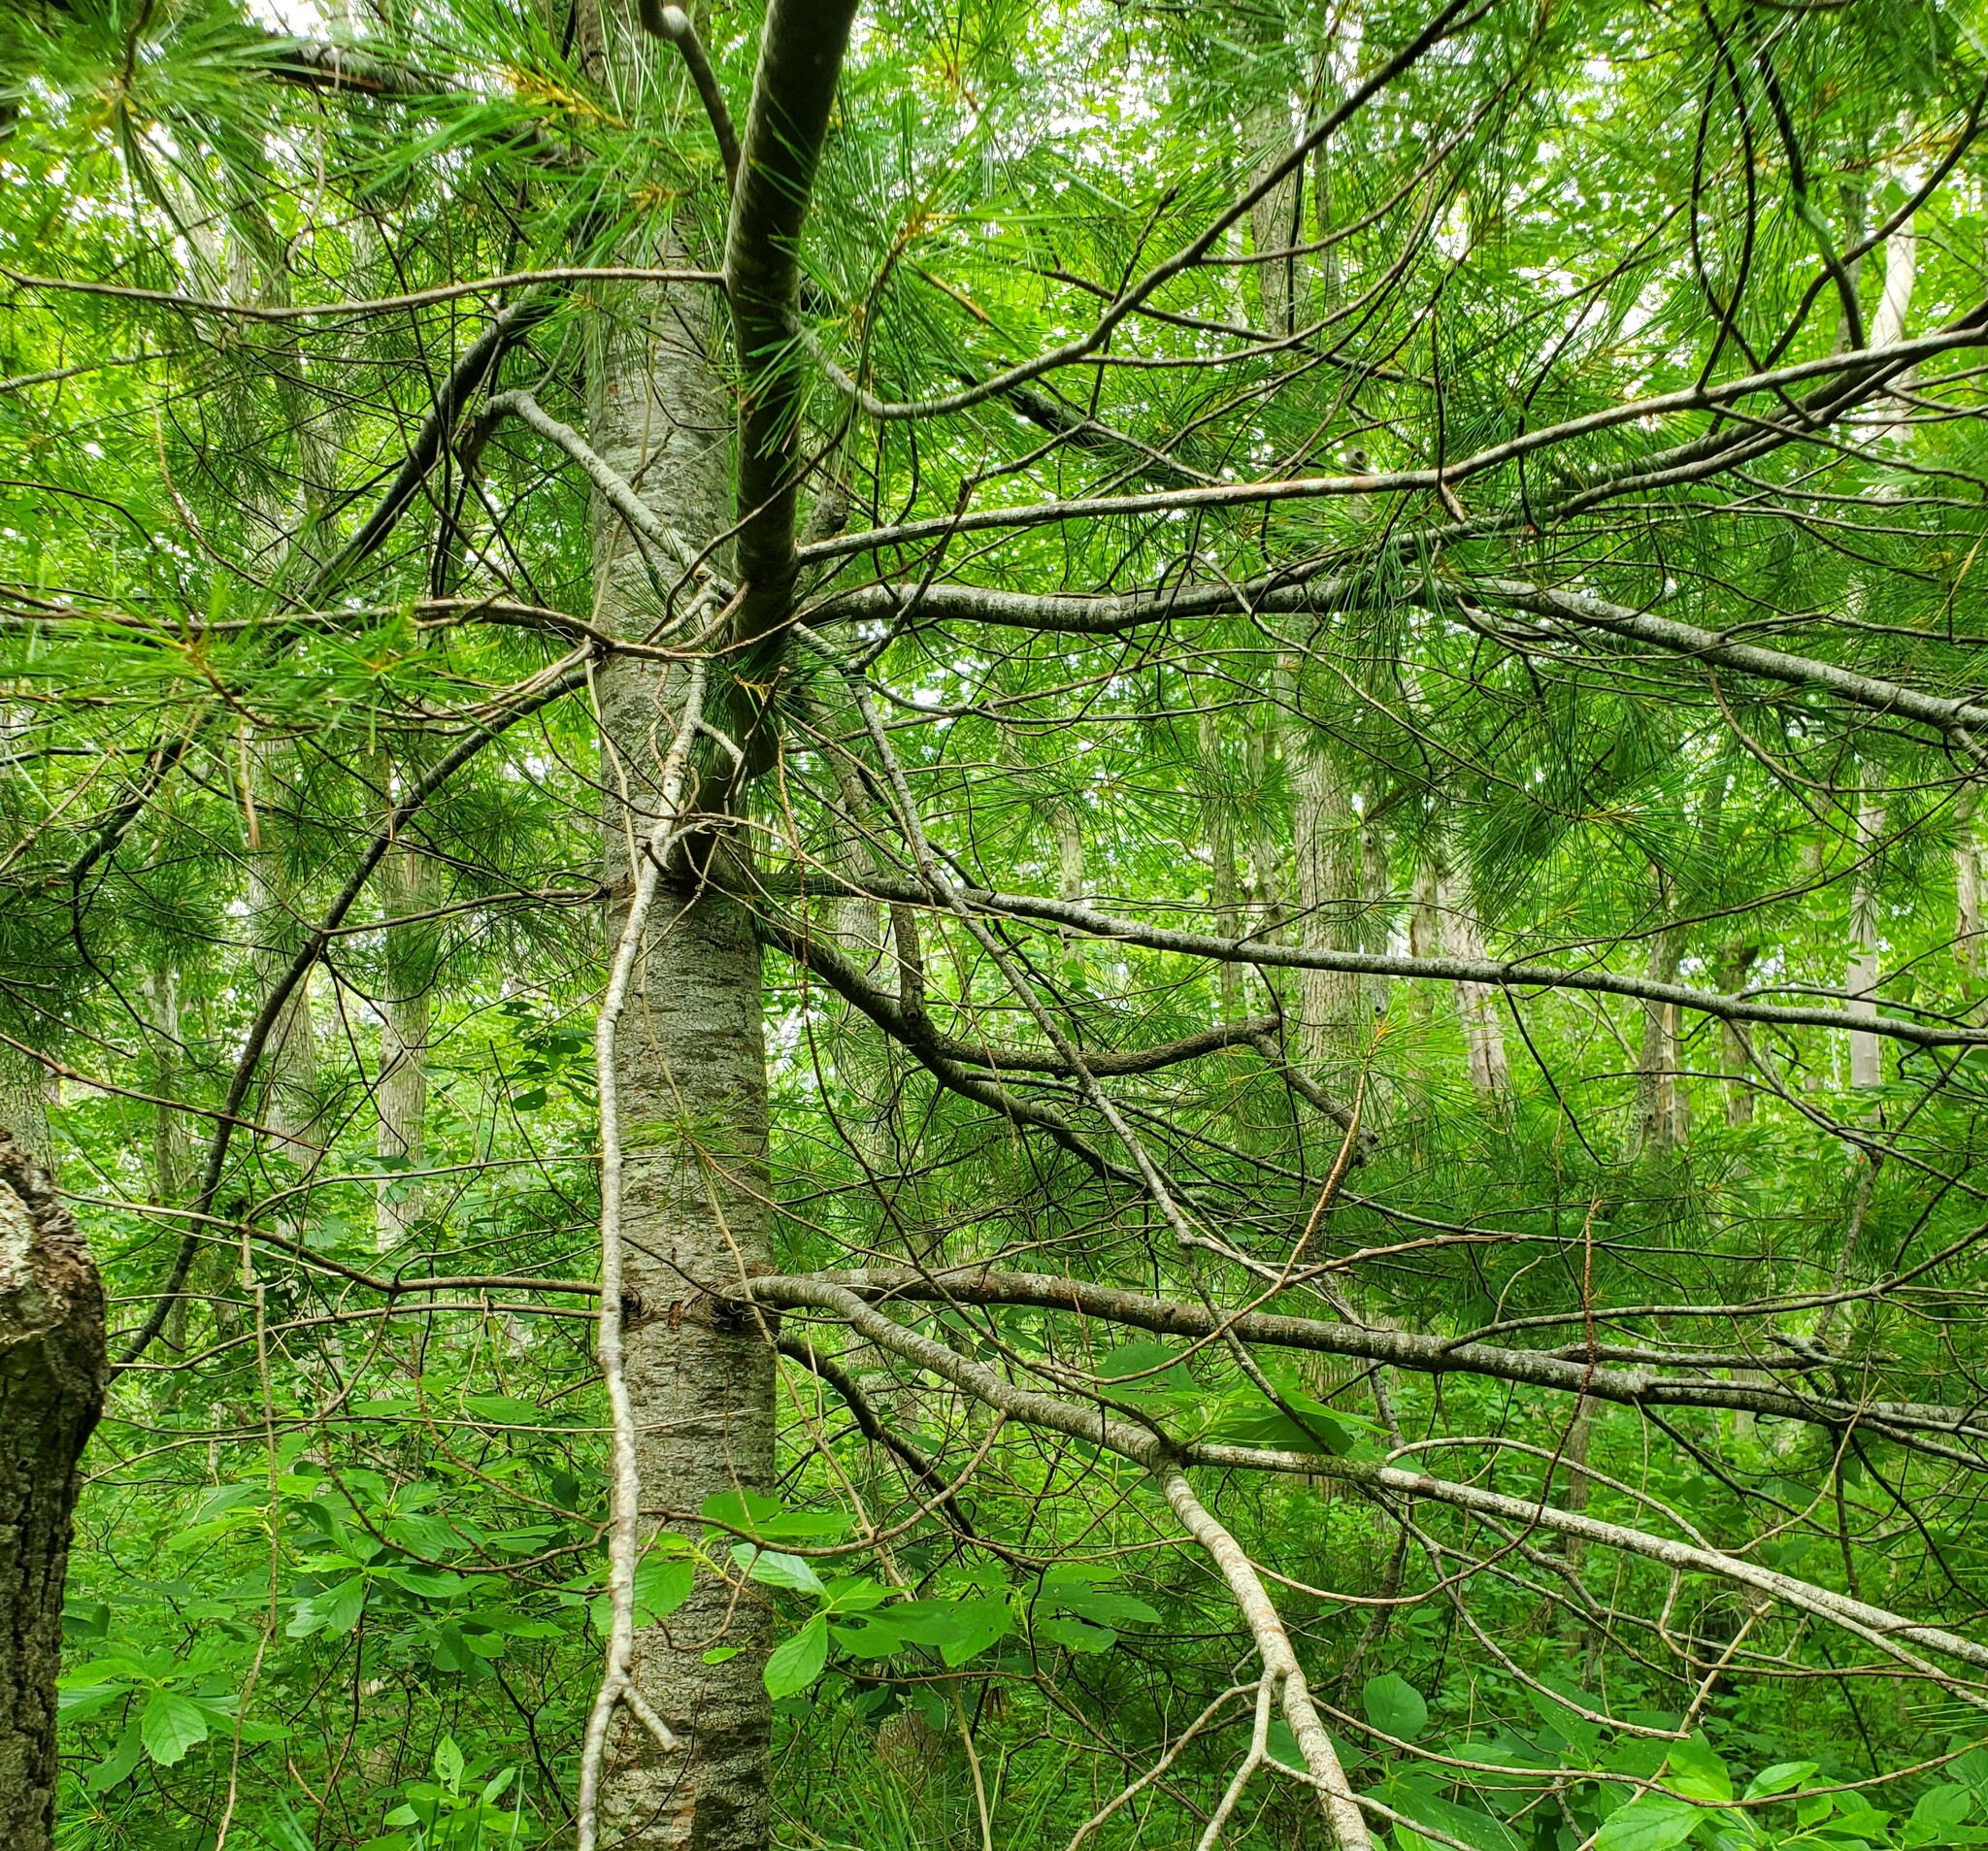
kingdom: Plantae
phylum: Tracheophyta
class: Pinopsida
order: Pinales
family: Pinaceae
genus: Pinus
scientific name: Pinus strobus
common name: Weymouth pine
